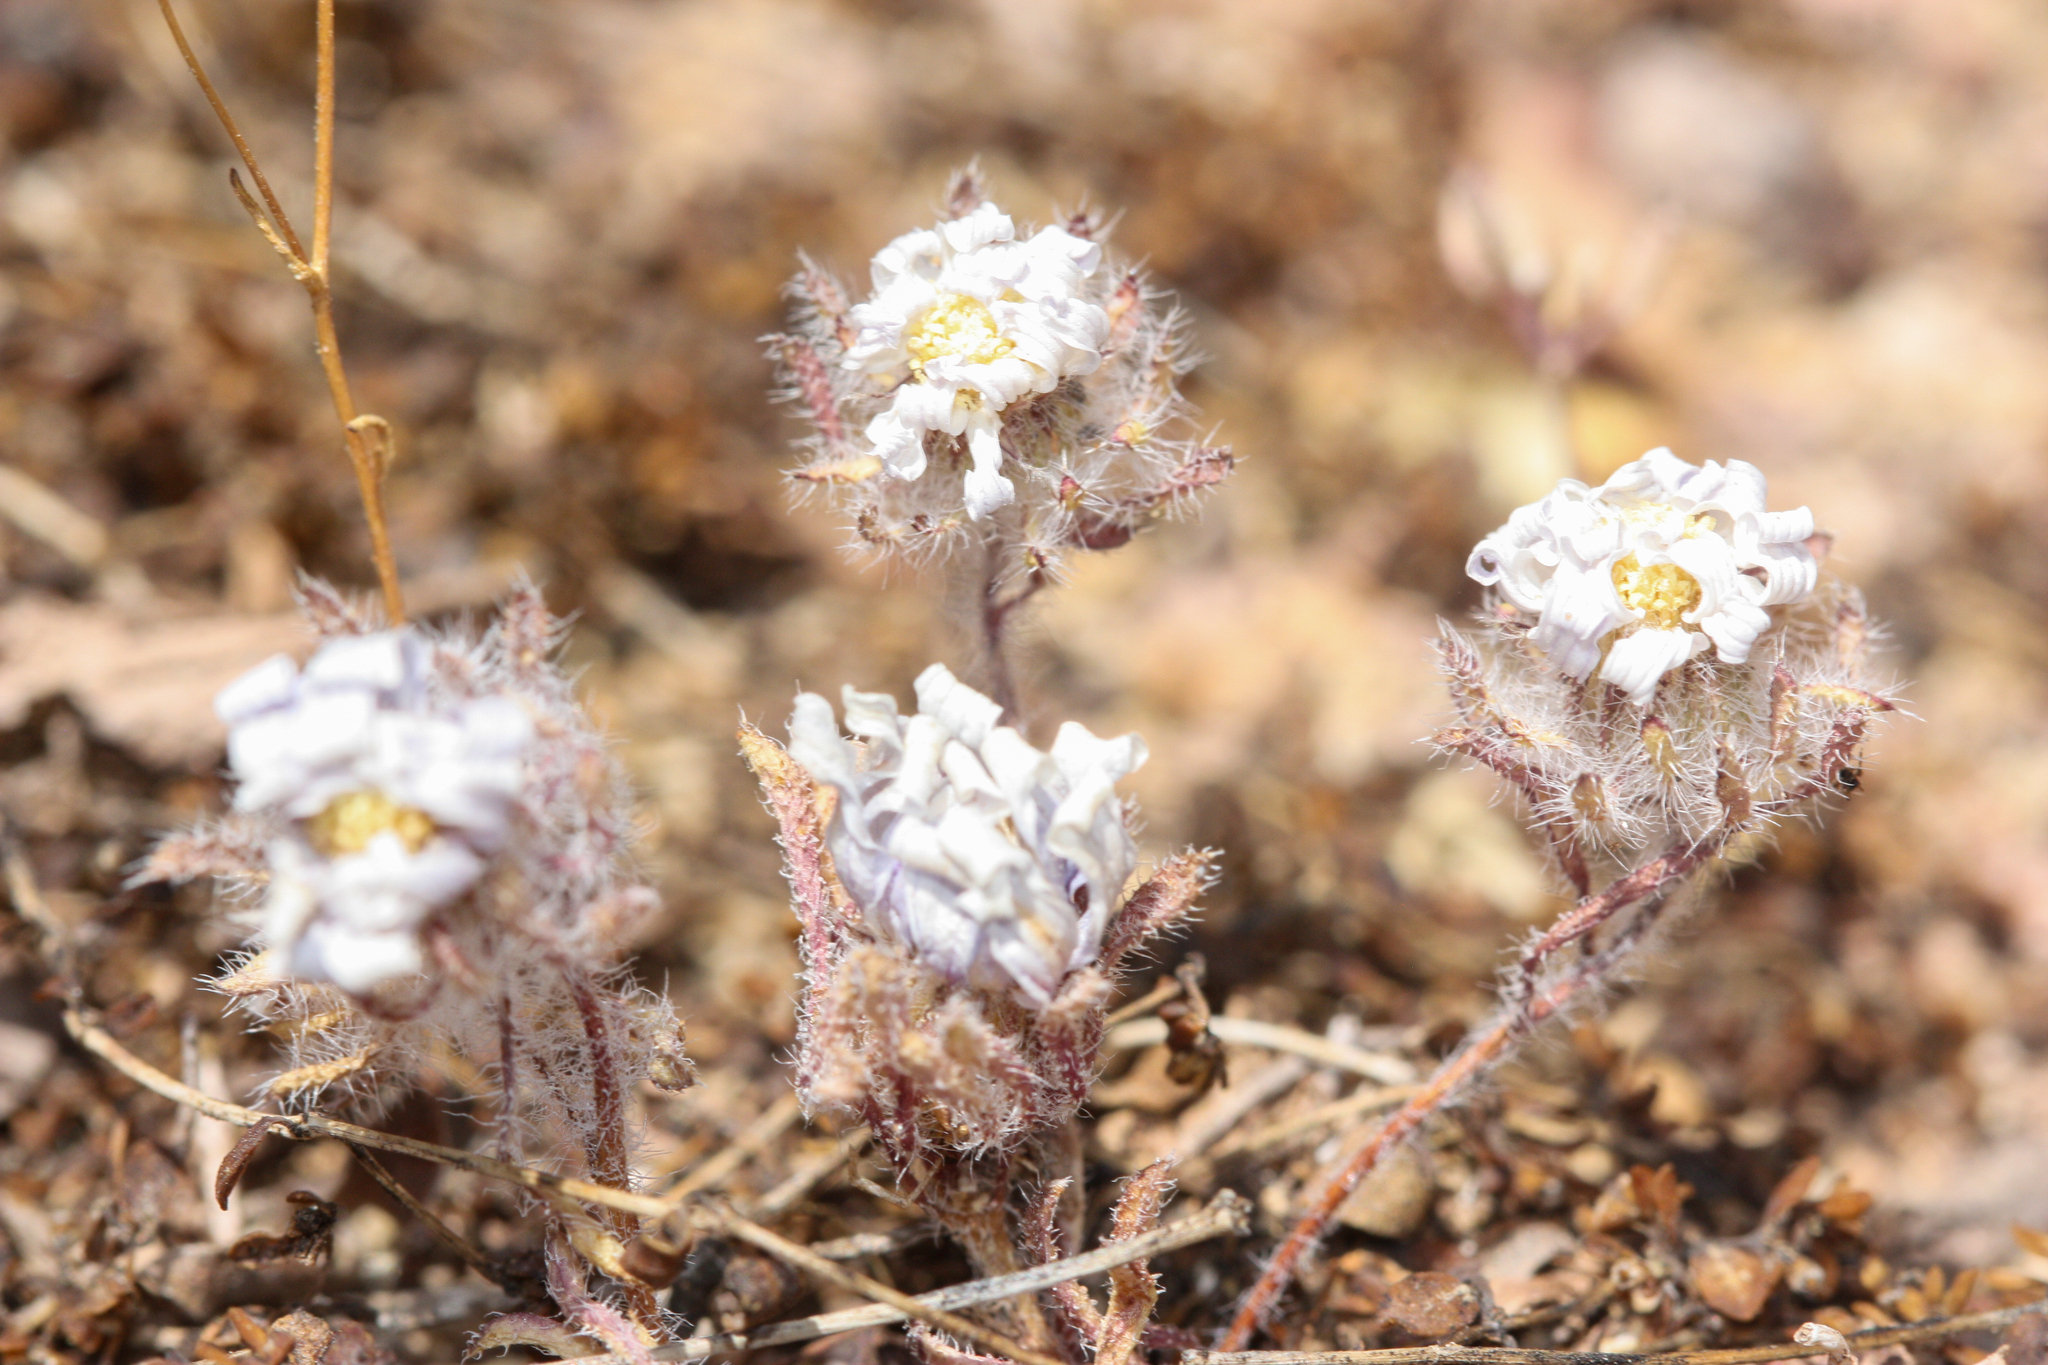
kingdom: Plantae
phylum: Tracheophyta
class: Magnoliopsida
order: Asterales
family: Asteraceae
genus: Monoptilon
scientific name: Monoptilon bellioides
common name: Bristly desertstar
